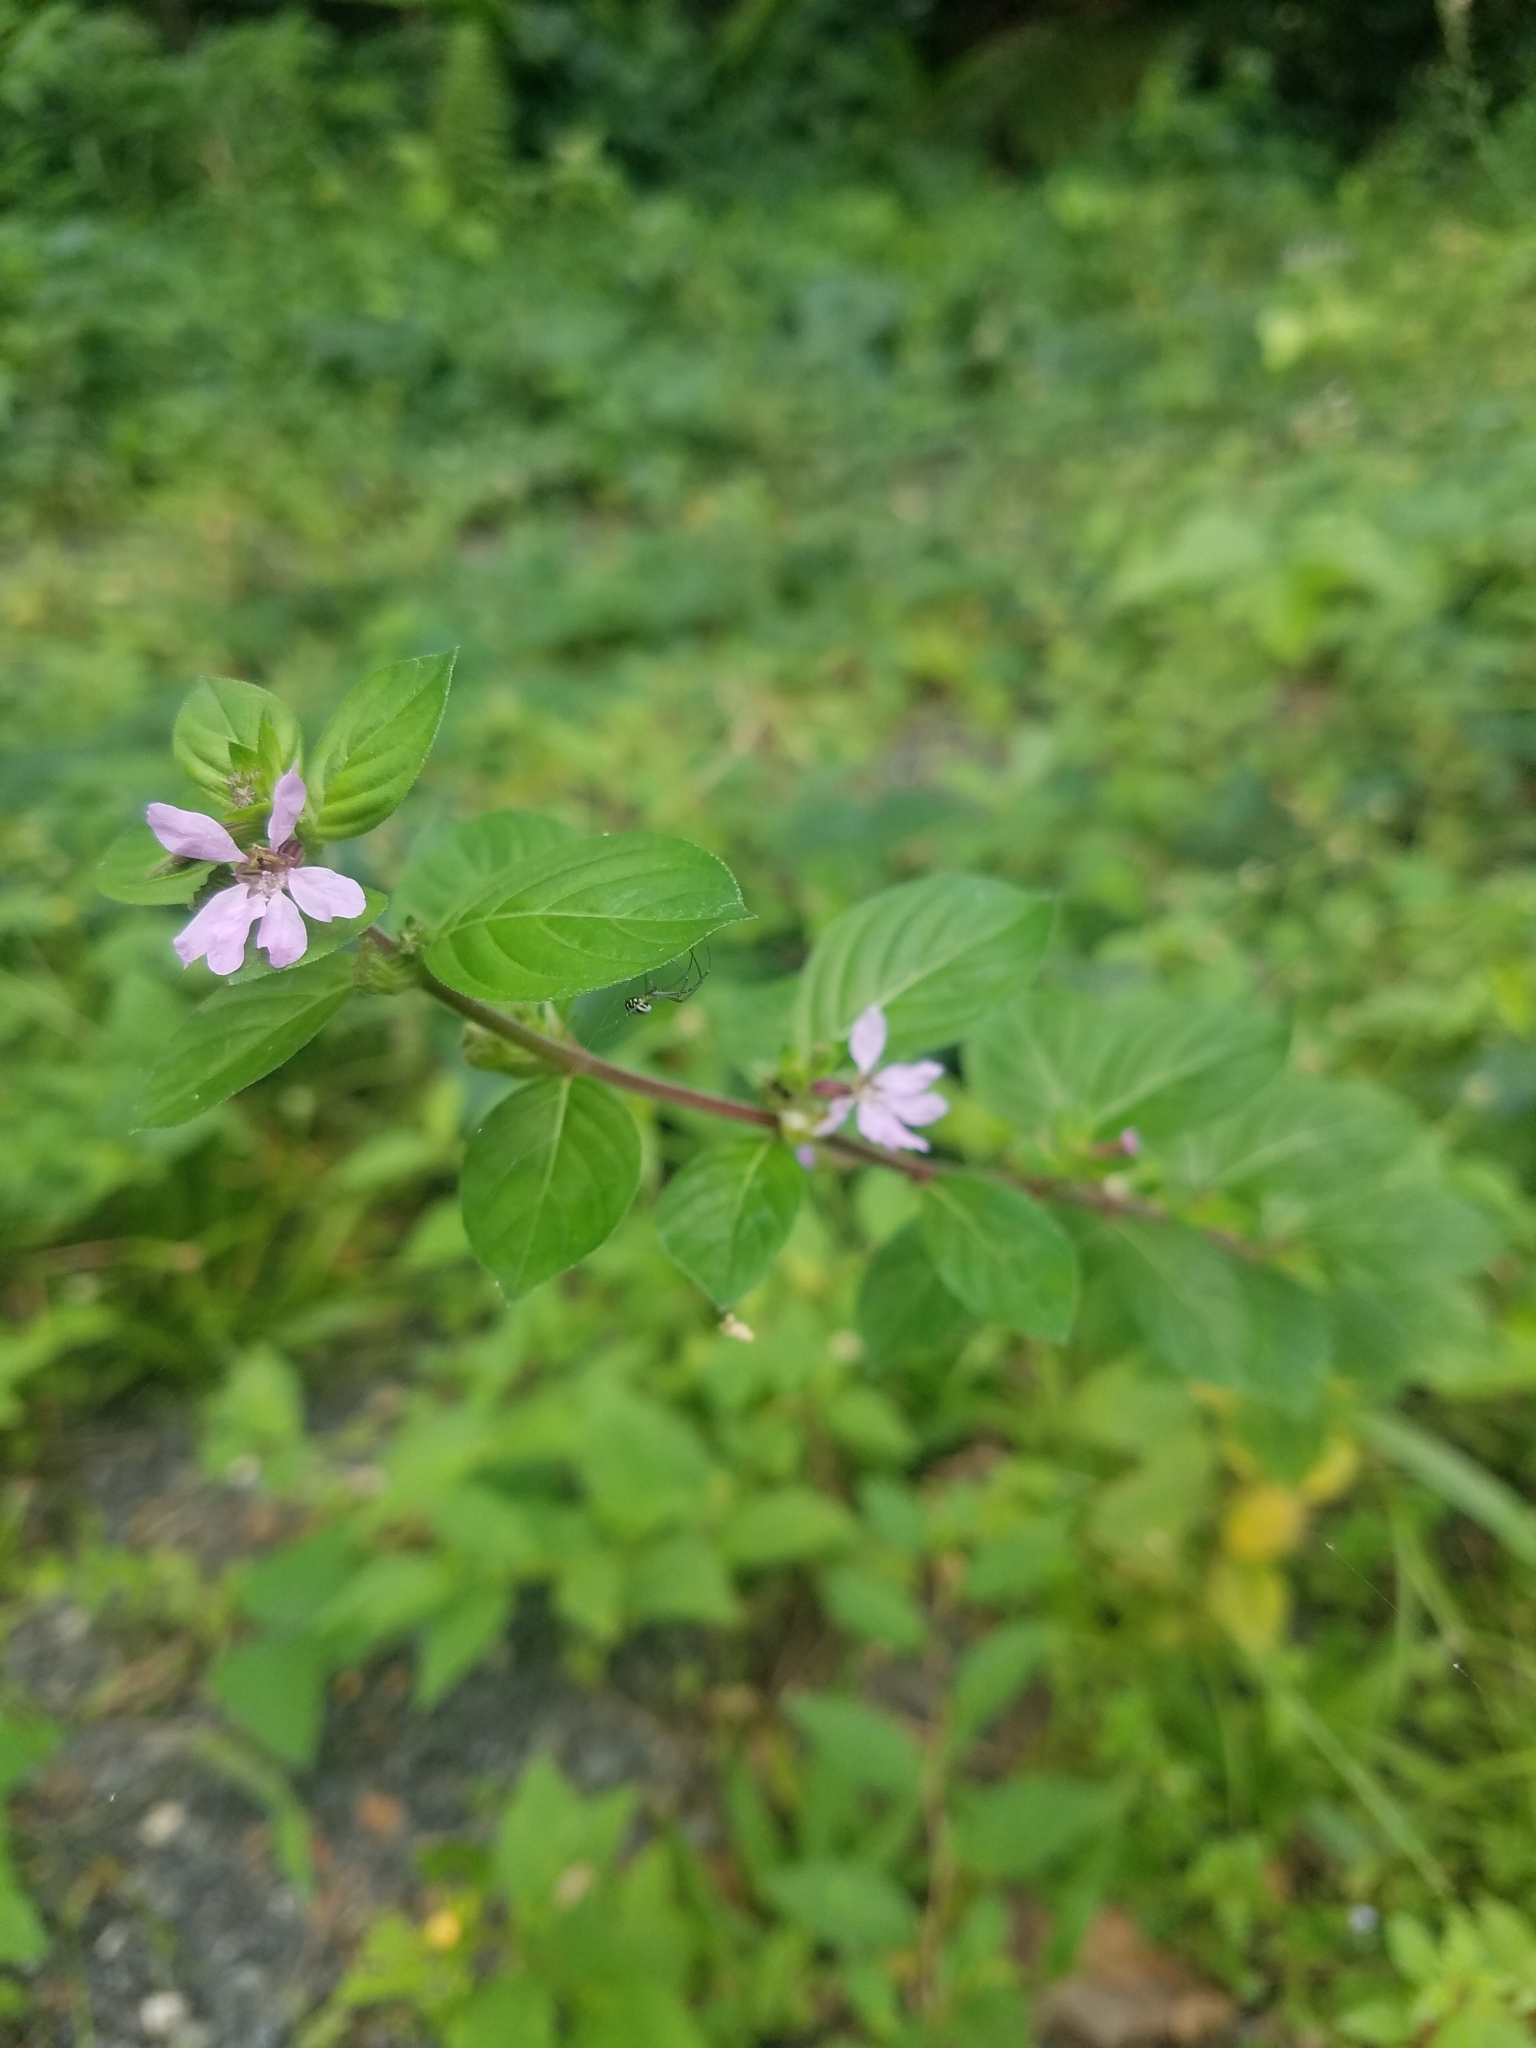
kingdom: Plantae
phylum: Tracheophyta
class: Magnoliopsida
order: Myrtales
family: Lythraceae
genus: Cuphea
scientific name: Cuphea strigulosa
